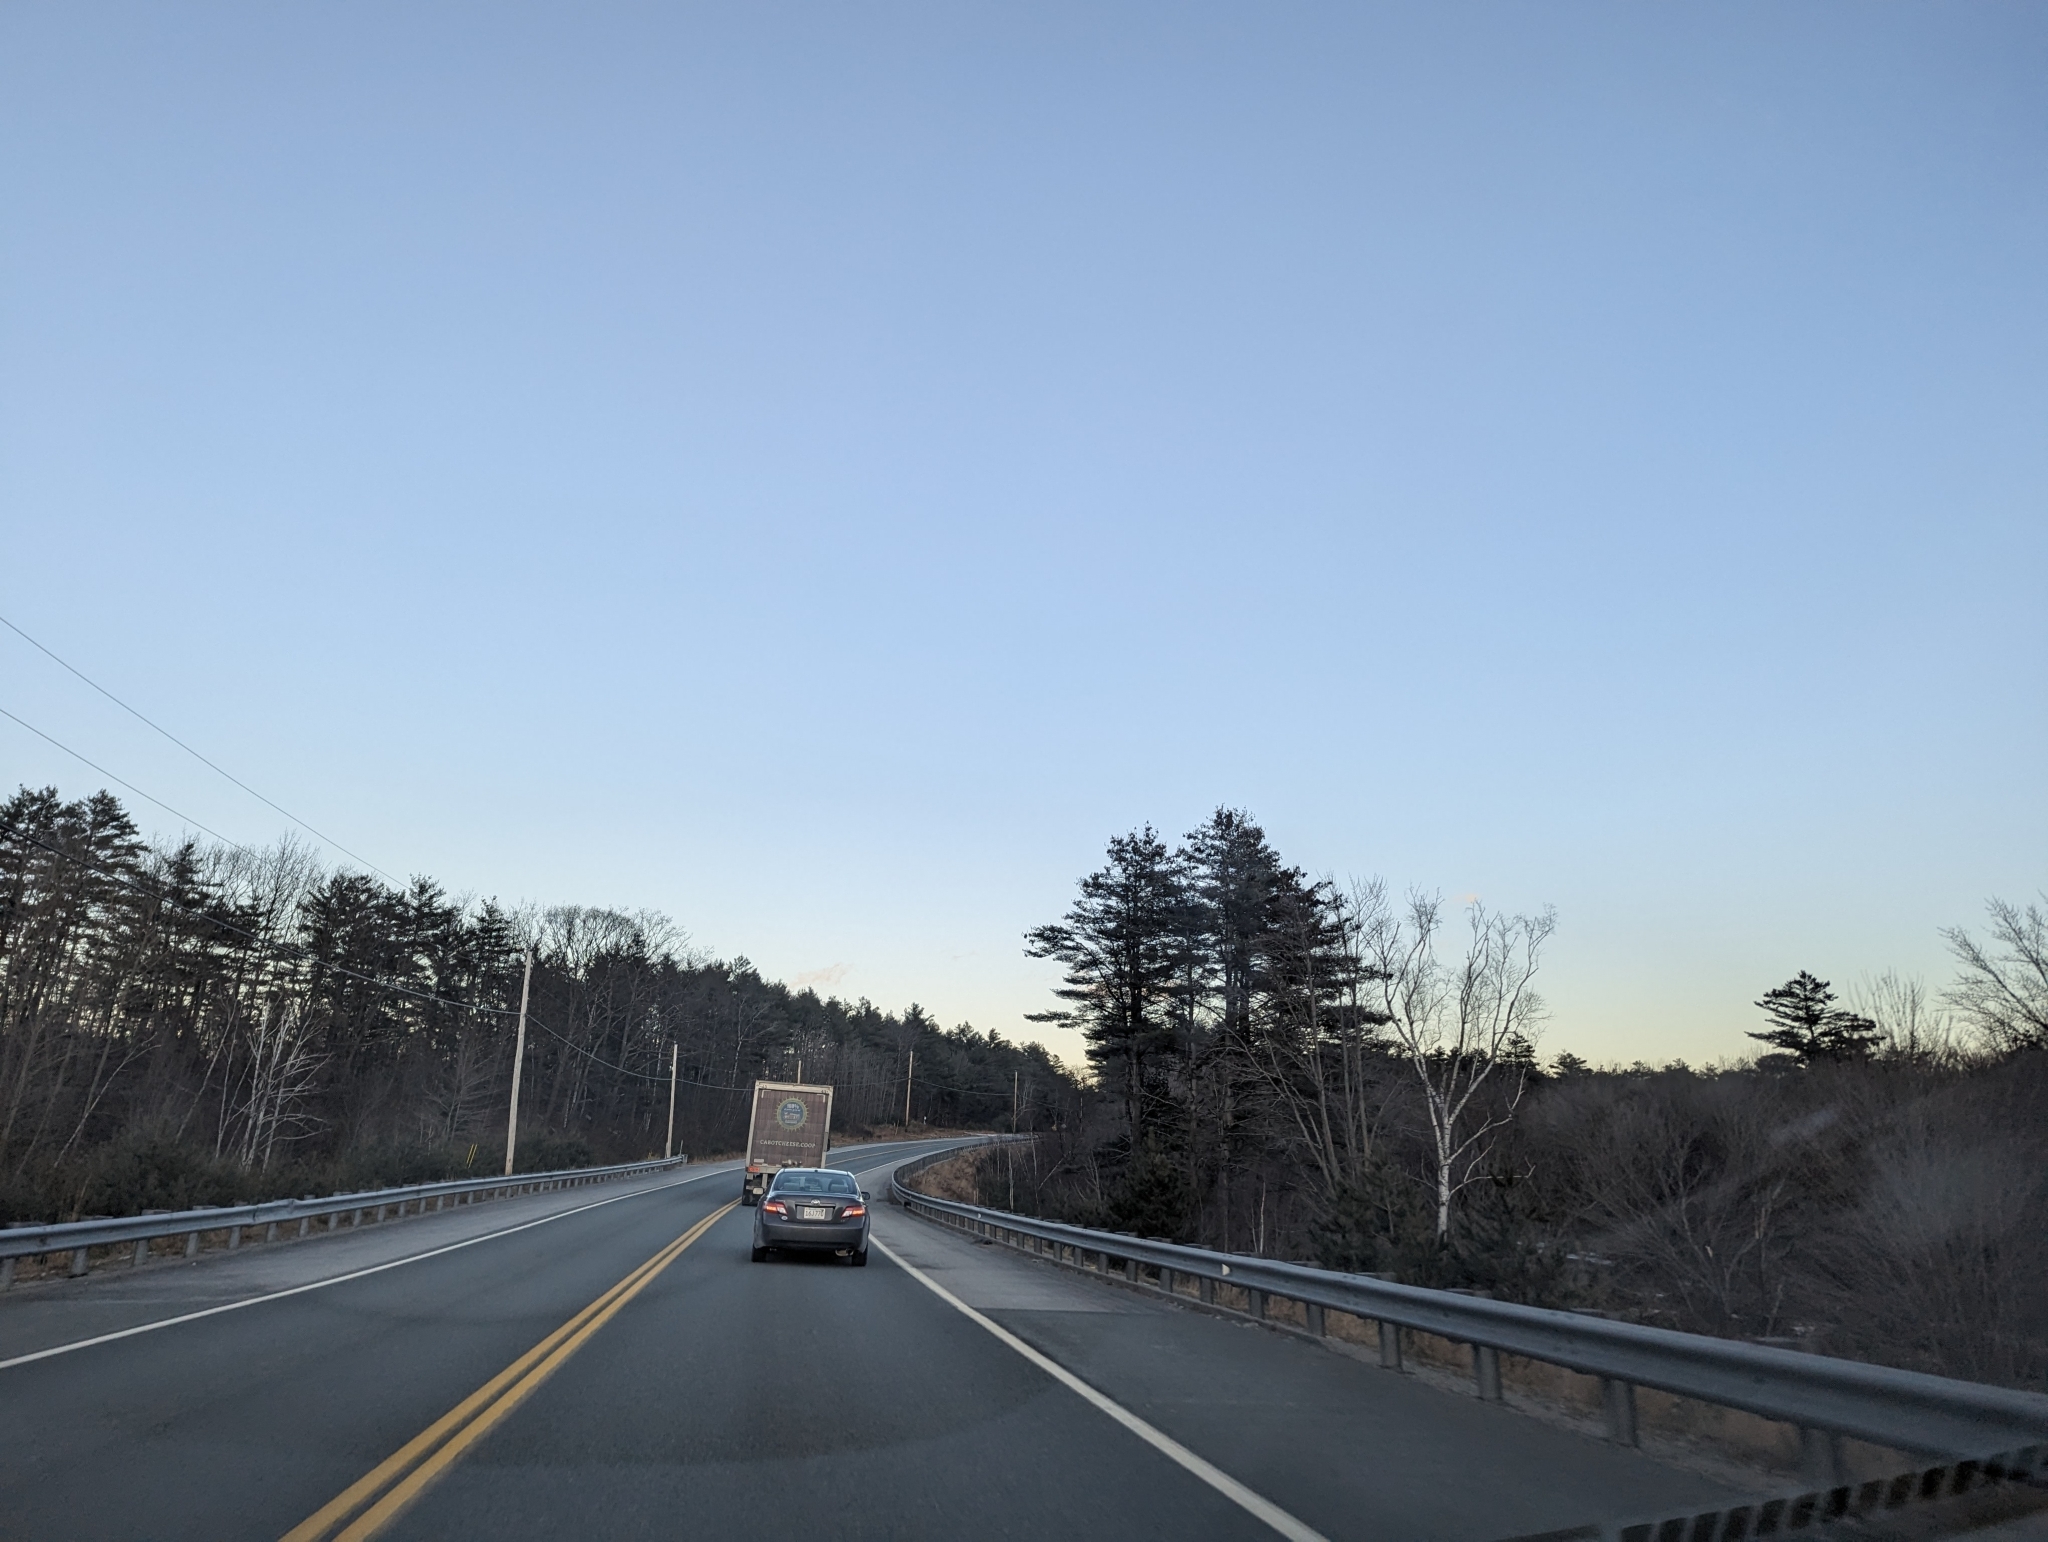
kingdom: Plantae
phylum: Tracheophyta
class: Pinopsida
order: Pinales
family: Pinaceae
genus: Pinus
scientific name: Pinus strobus
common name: Weymouth pine
